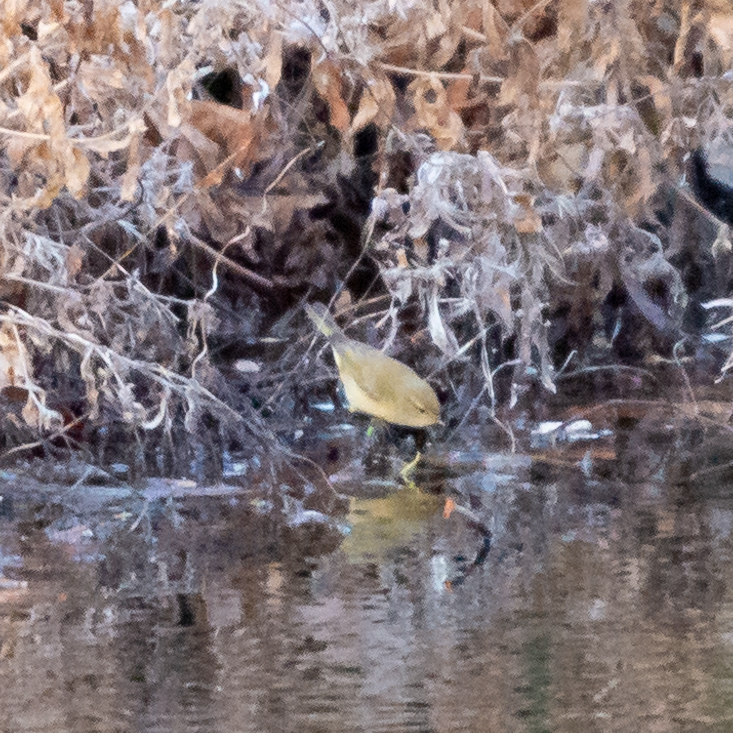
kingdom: Animalia
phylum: Chordata
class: Aves
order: Passeriformes
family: Phylloscopidae
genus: Phylloscopus
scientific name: Phylloscopus collybita
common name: Common chiffchaff
